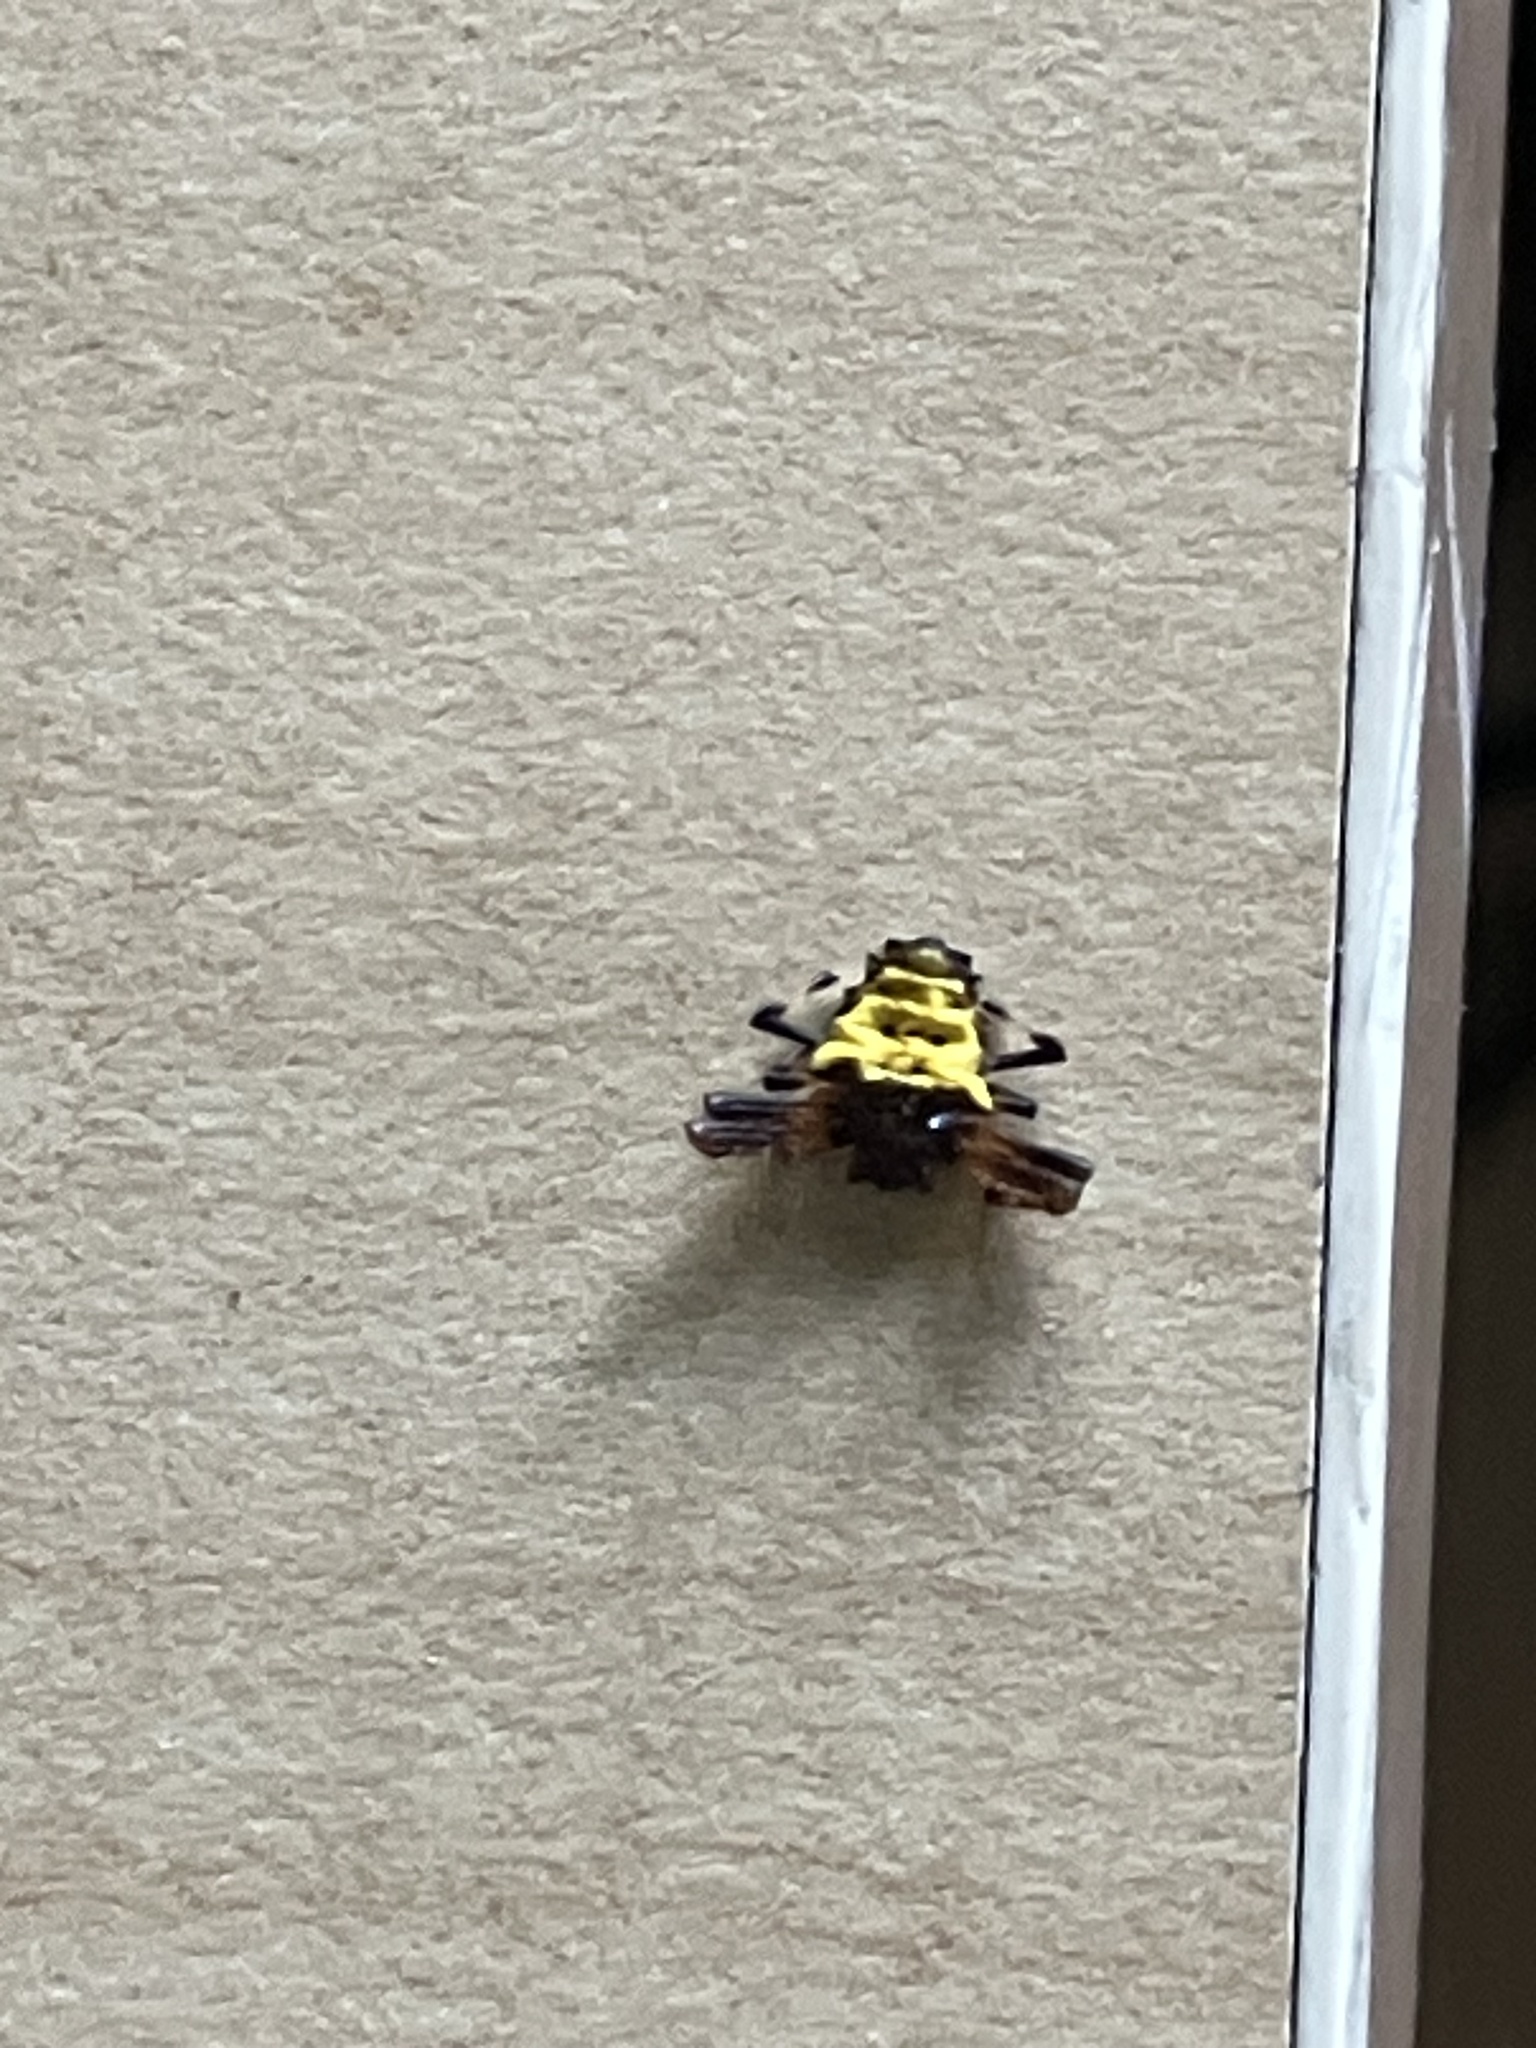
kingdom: Animalia
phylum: Arthropoda
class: Arachnida
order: Araneae
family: Araneidae
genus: Verrucosa
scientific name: Verrucosa arenata
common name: Orb weavers
